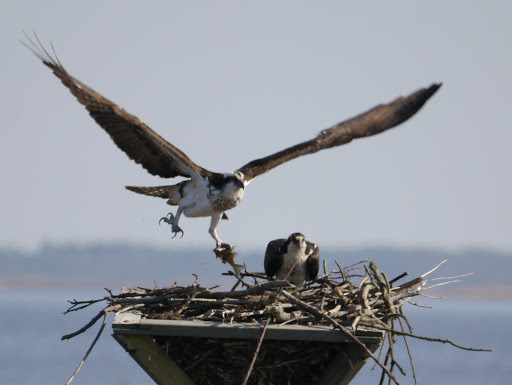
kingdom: Animalia
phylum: Chordata
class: Aves
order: Accipitriformes
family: Pandionidae
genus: Pandion
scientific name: Pandion haliaetus
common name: Osprey
